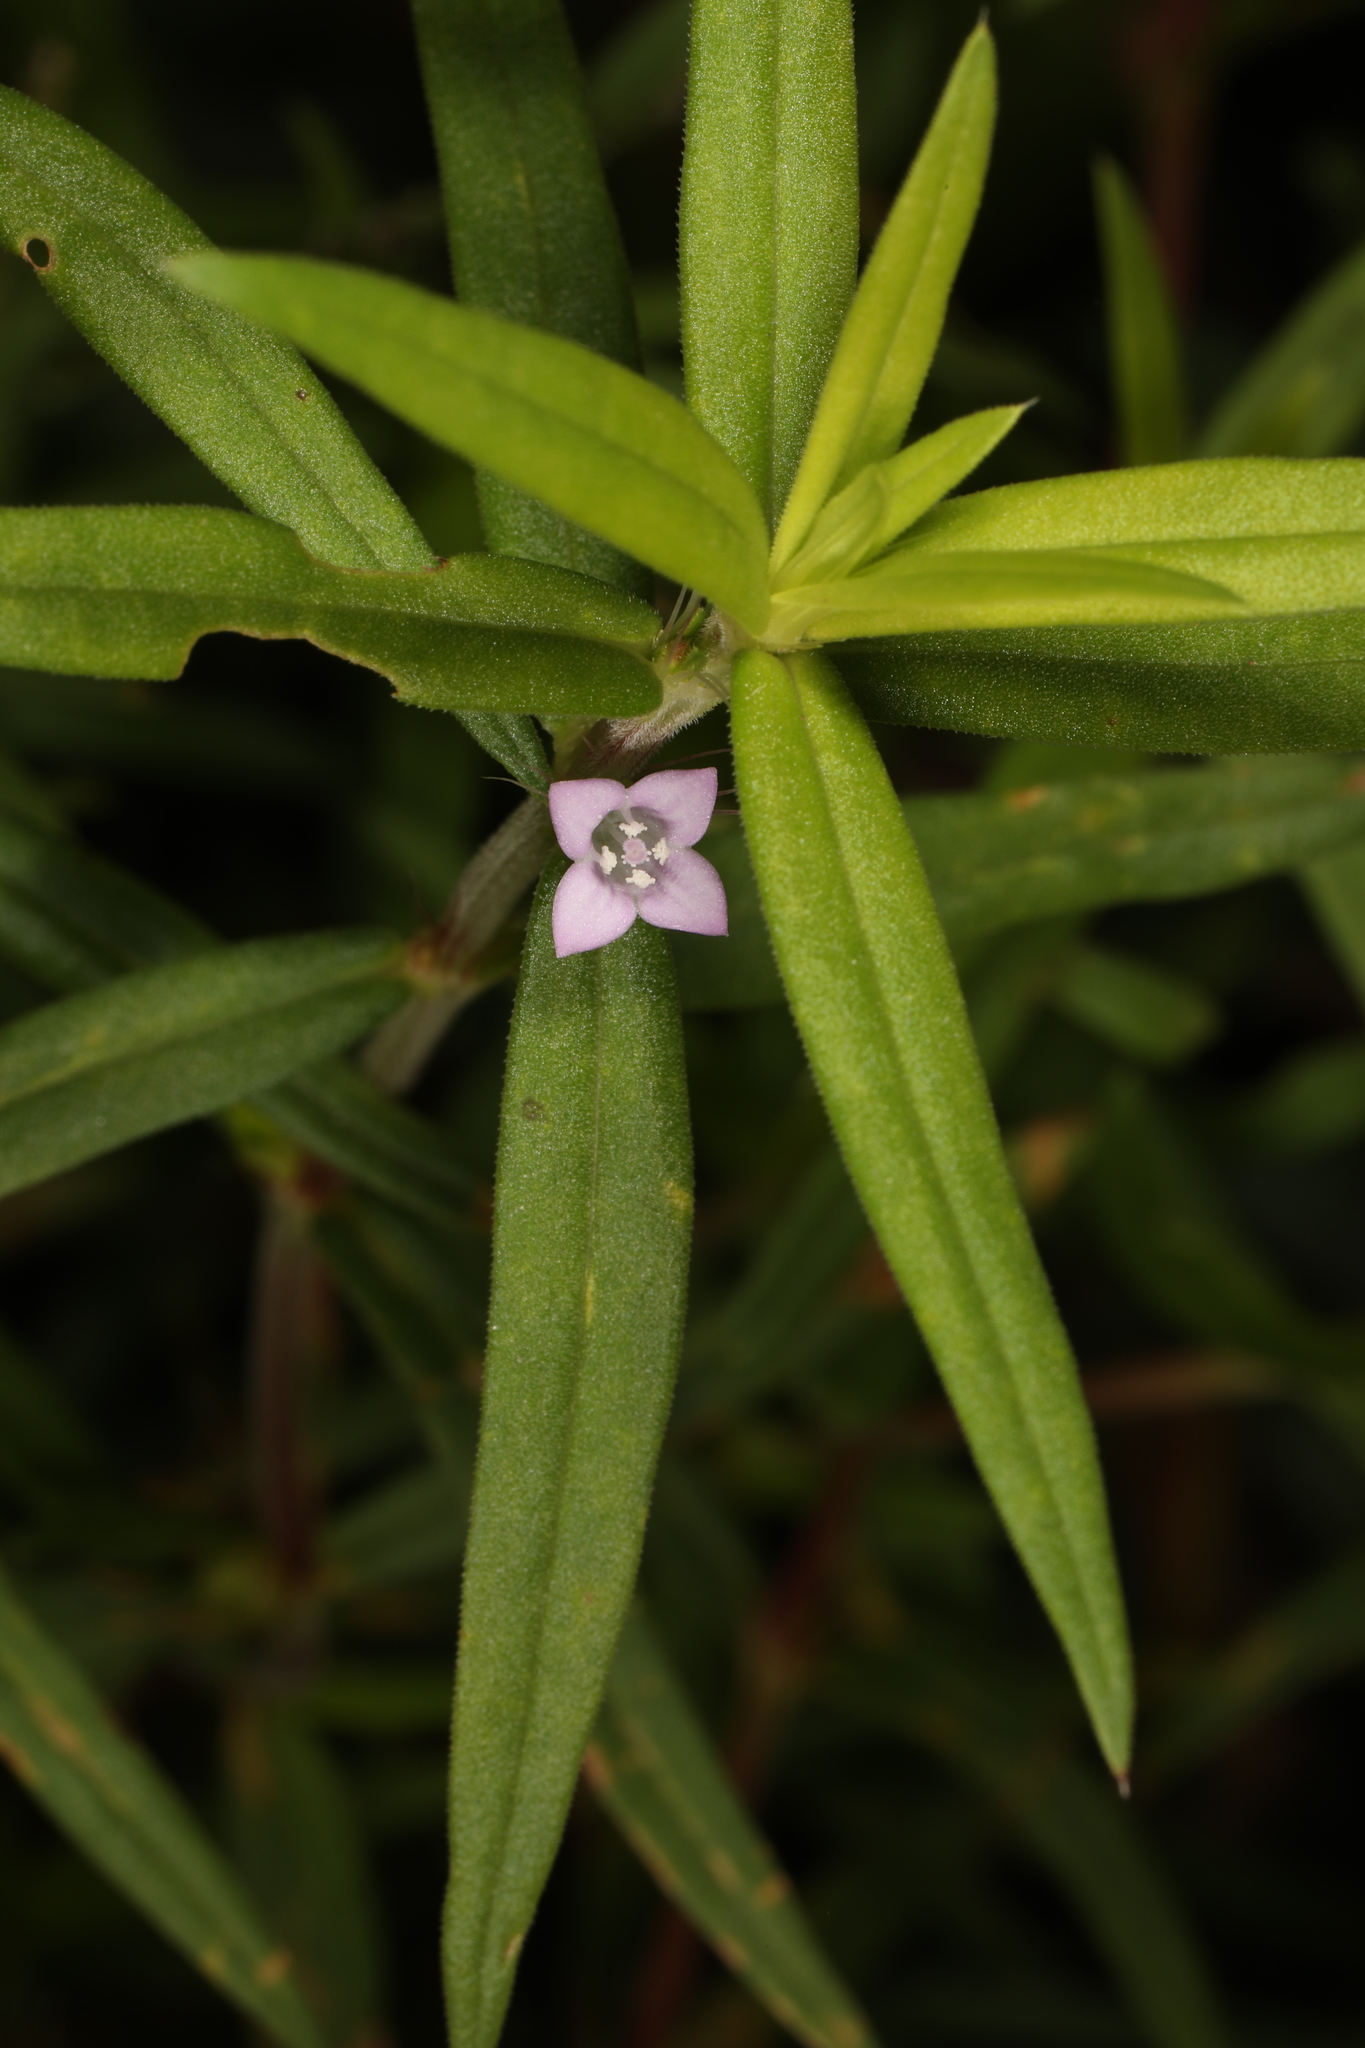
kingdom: Plantae
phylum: Tracheophyta
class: Magnoliopsida
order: Gentianales
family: Rubiaceae
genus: Hexasepalum
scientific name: Hexasepalum teres
